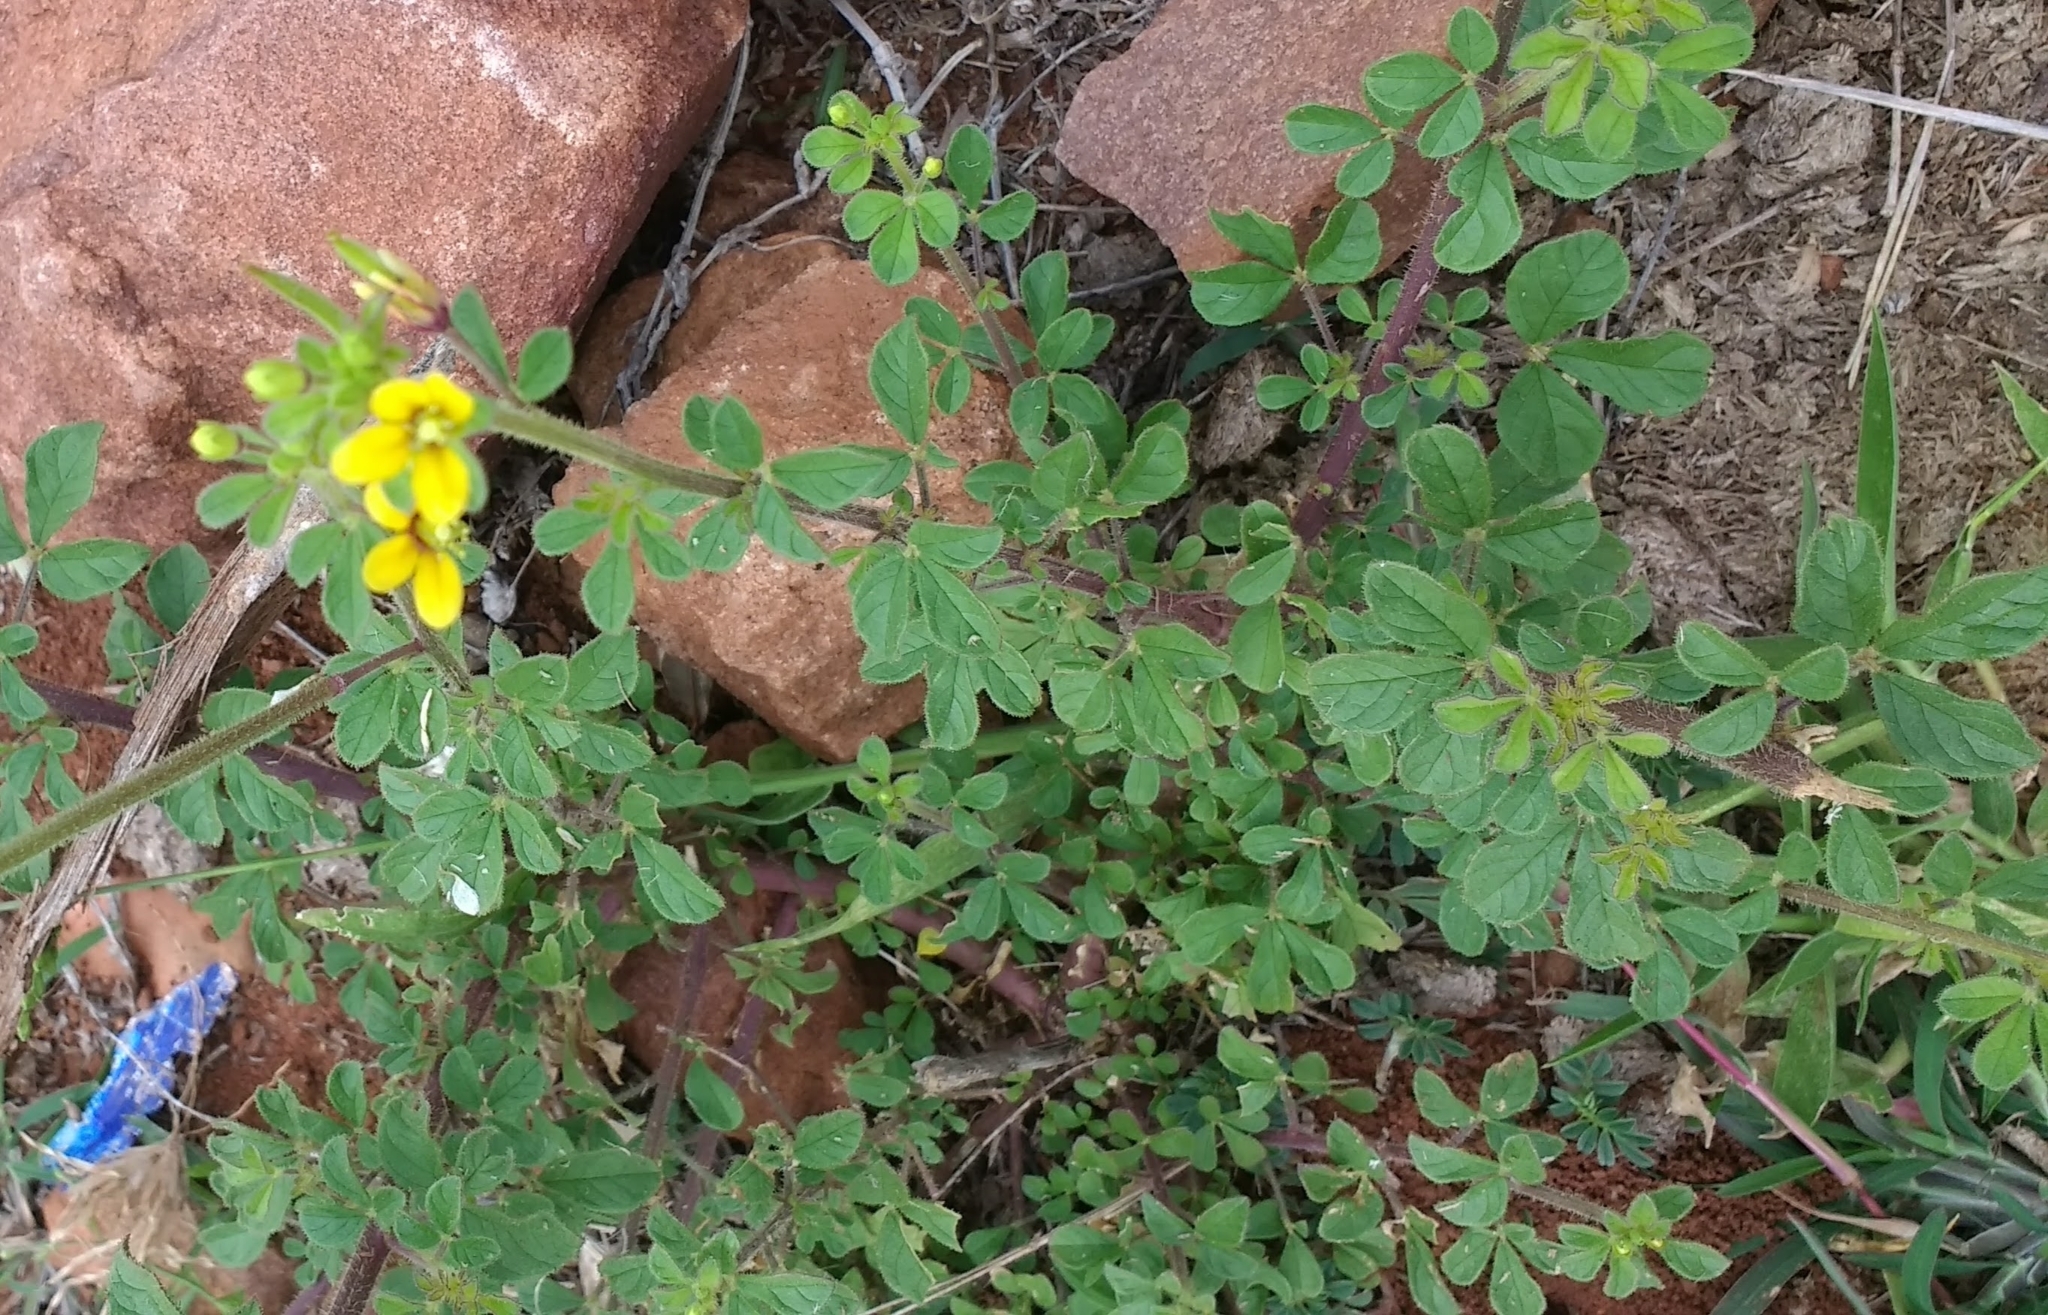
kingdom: Plantae
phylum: Tracheophyta
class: Magnoliopsida
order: Brassicales
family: Cleomaceae
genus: Arivela
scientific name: Arivela viscosa
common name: Asian spiderflower
